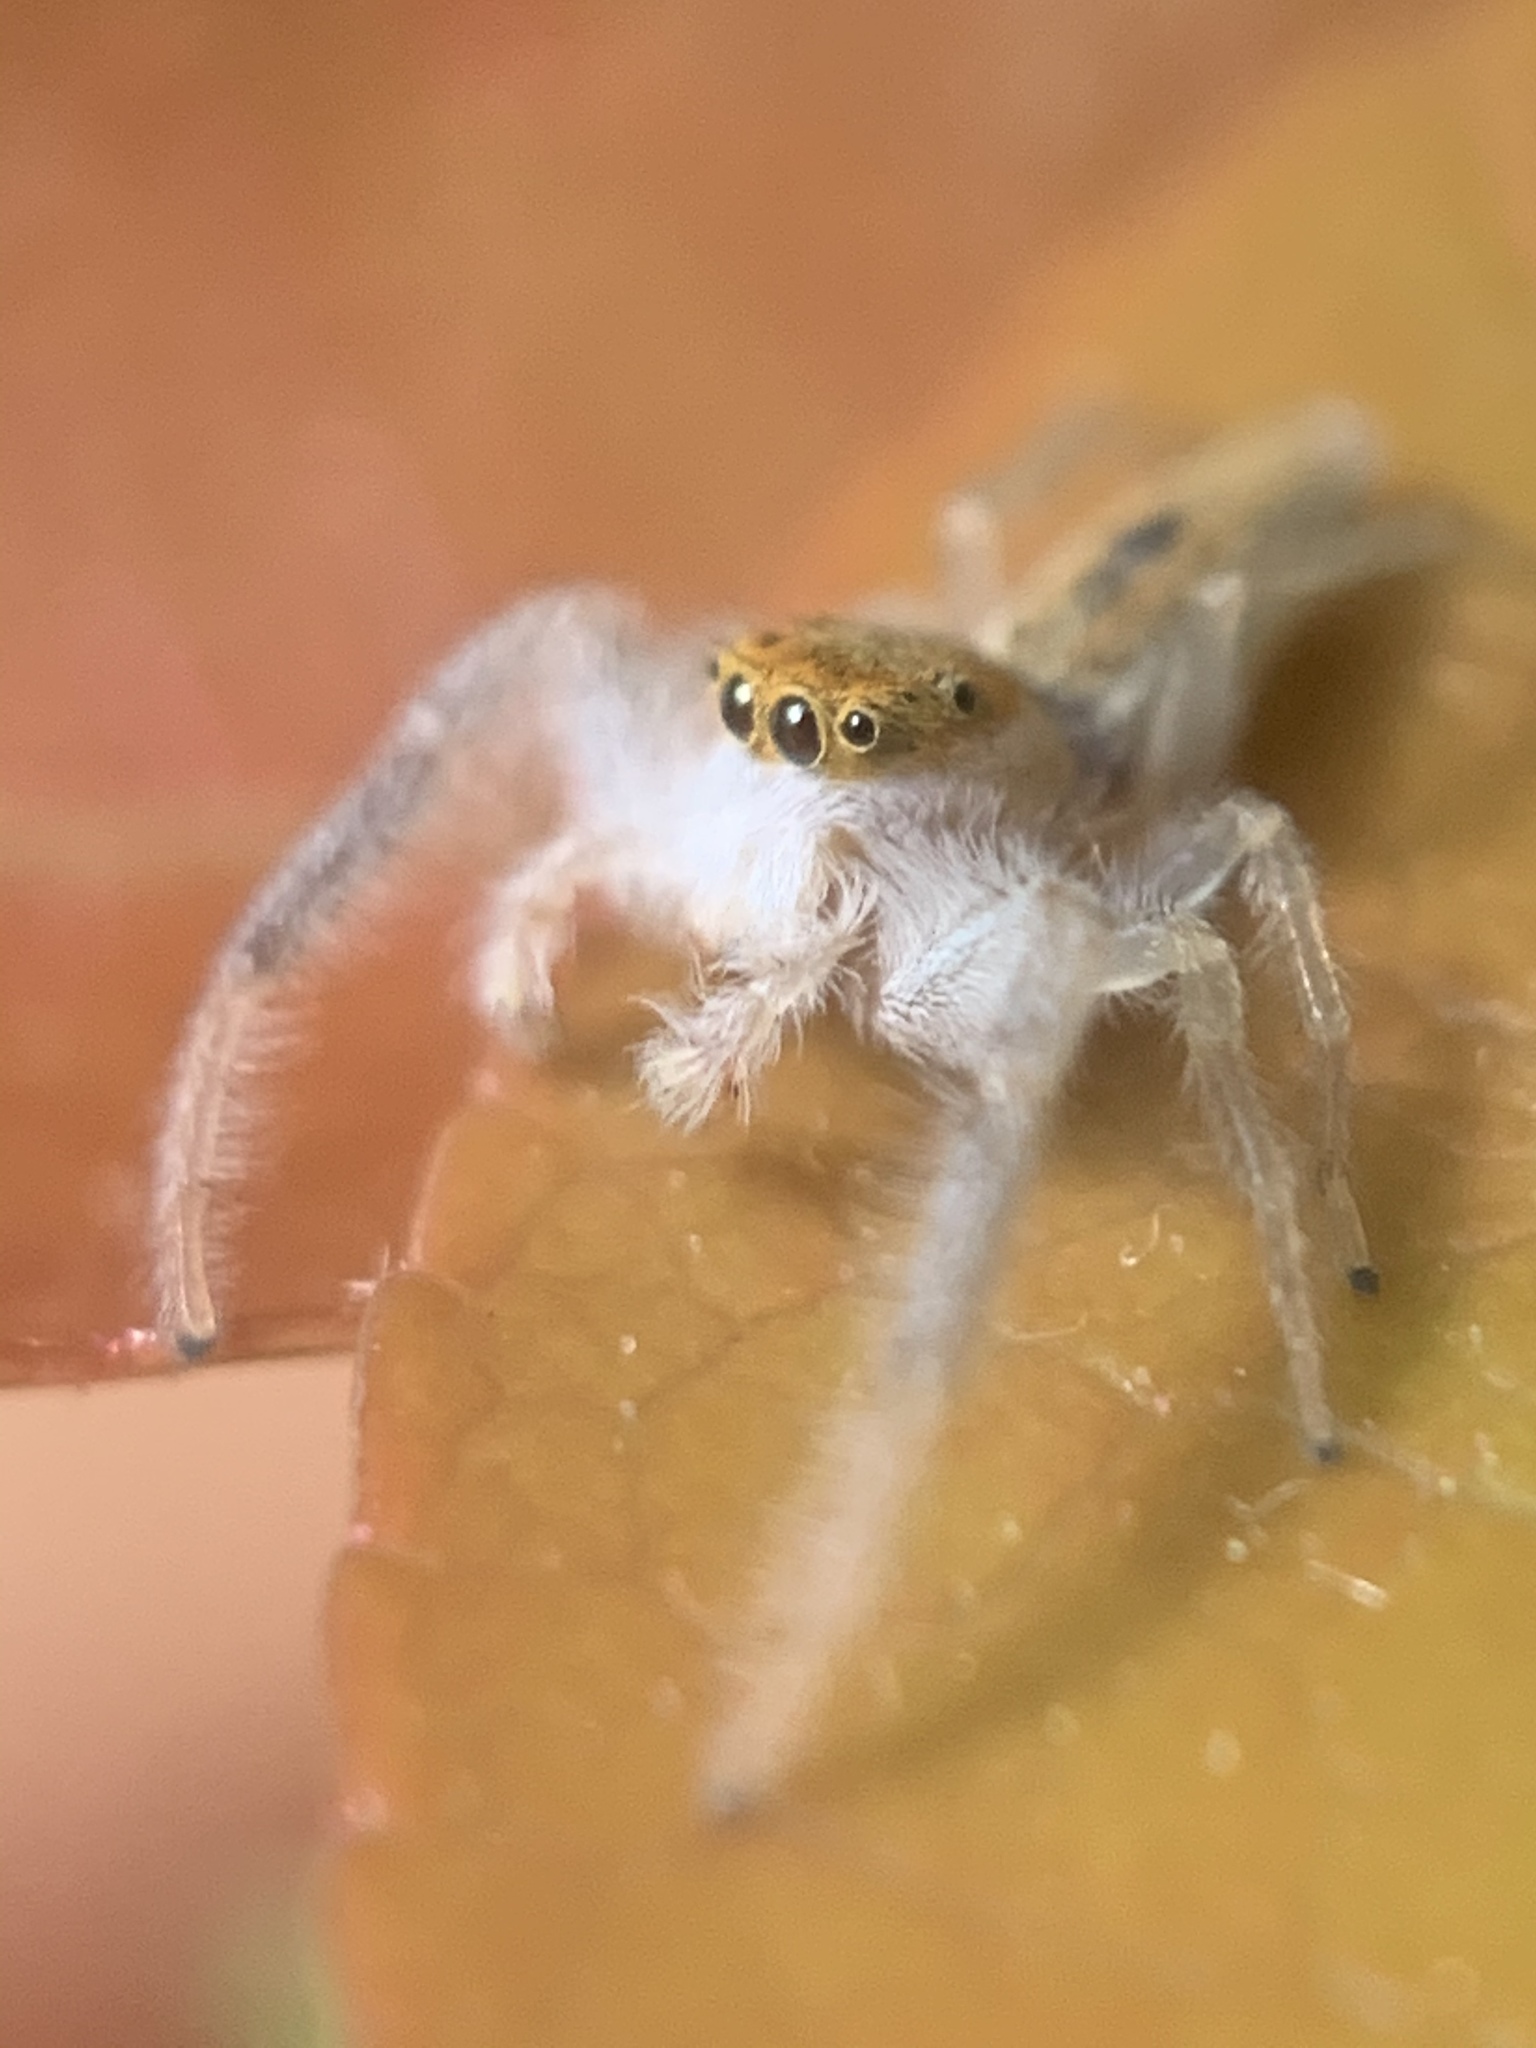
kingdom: Animalia
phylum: Arthropoda
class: Arachnida
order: Araneae
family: Salticidae
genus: Hentzia
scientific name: Hentzia mitrata
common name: White-jawed jumping spider
